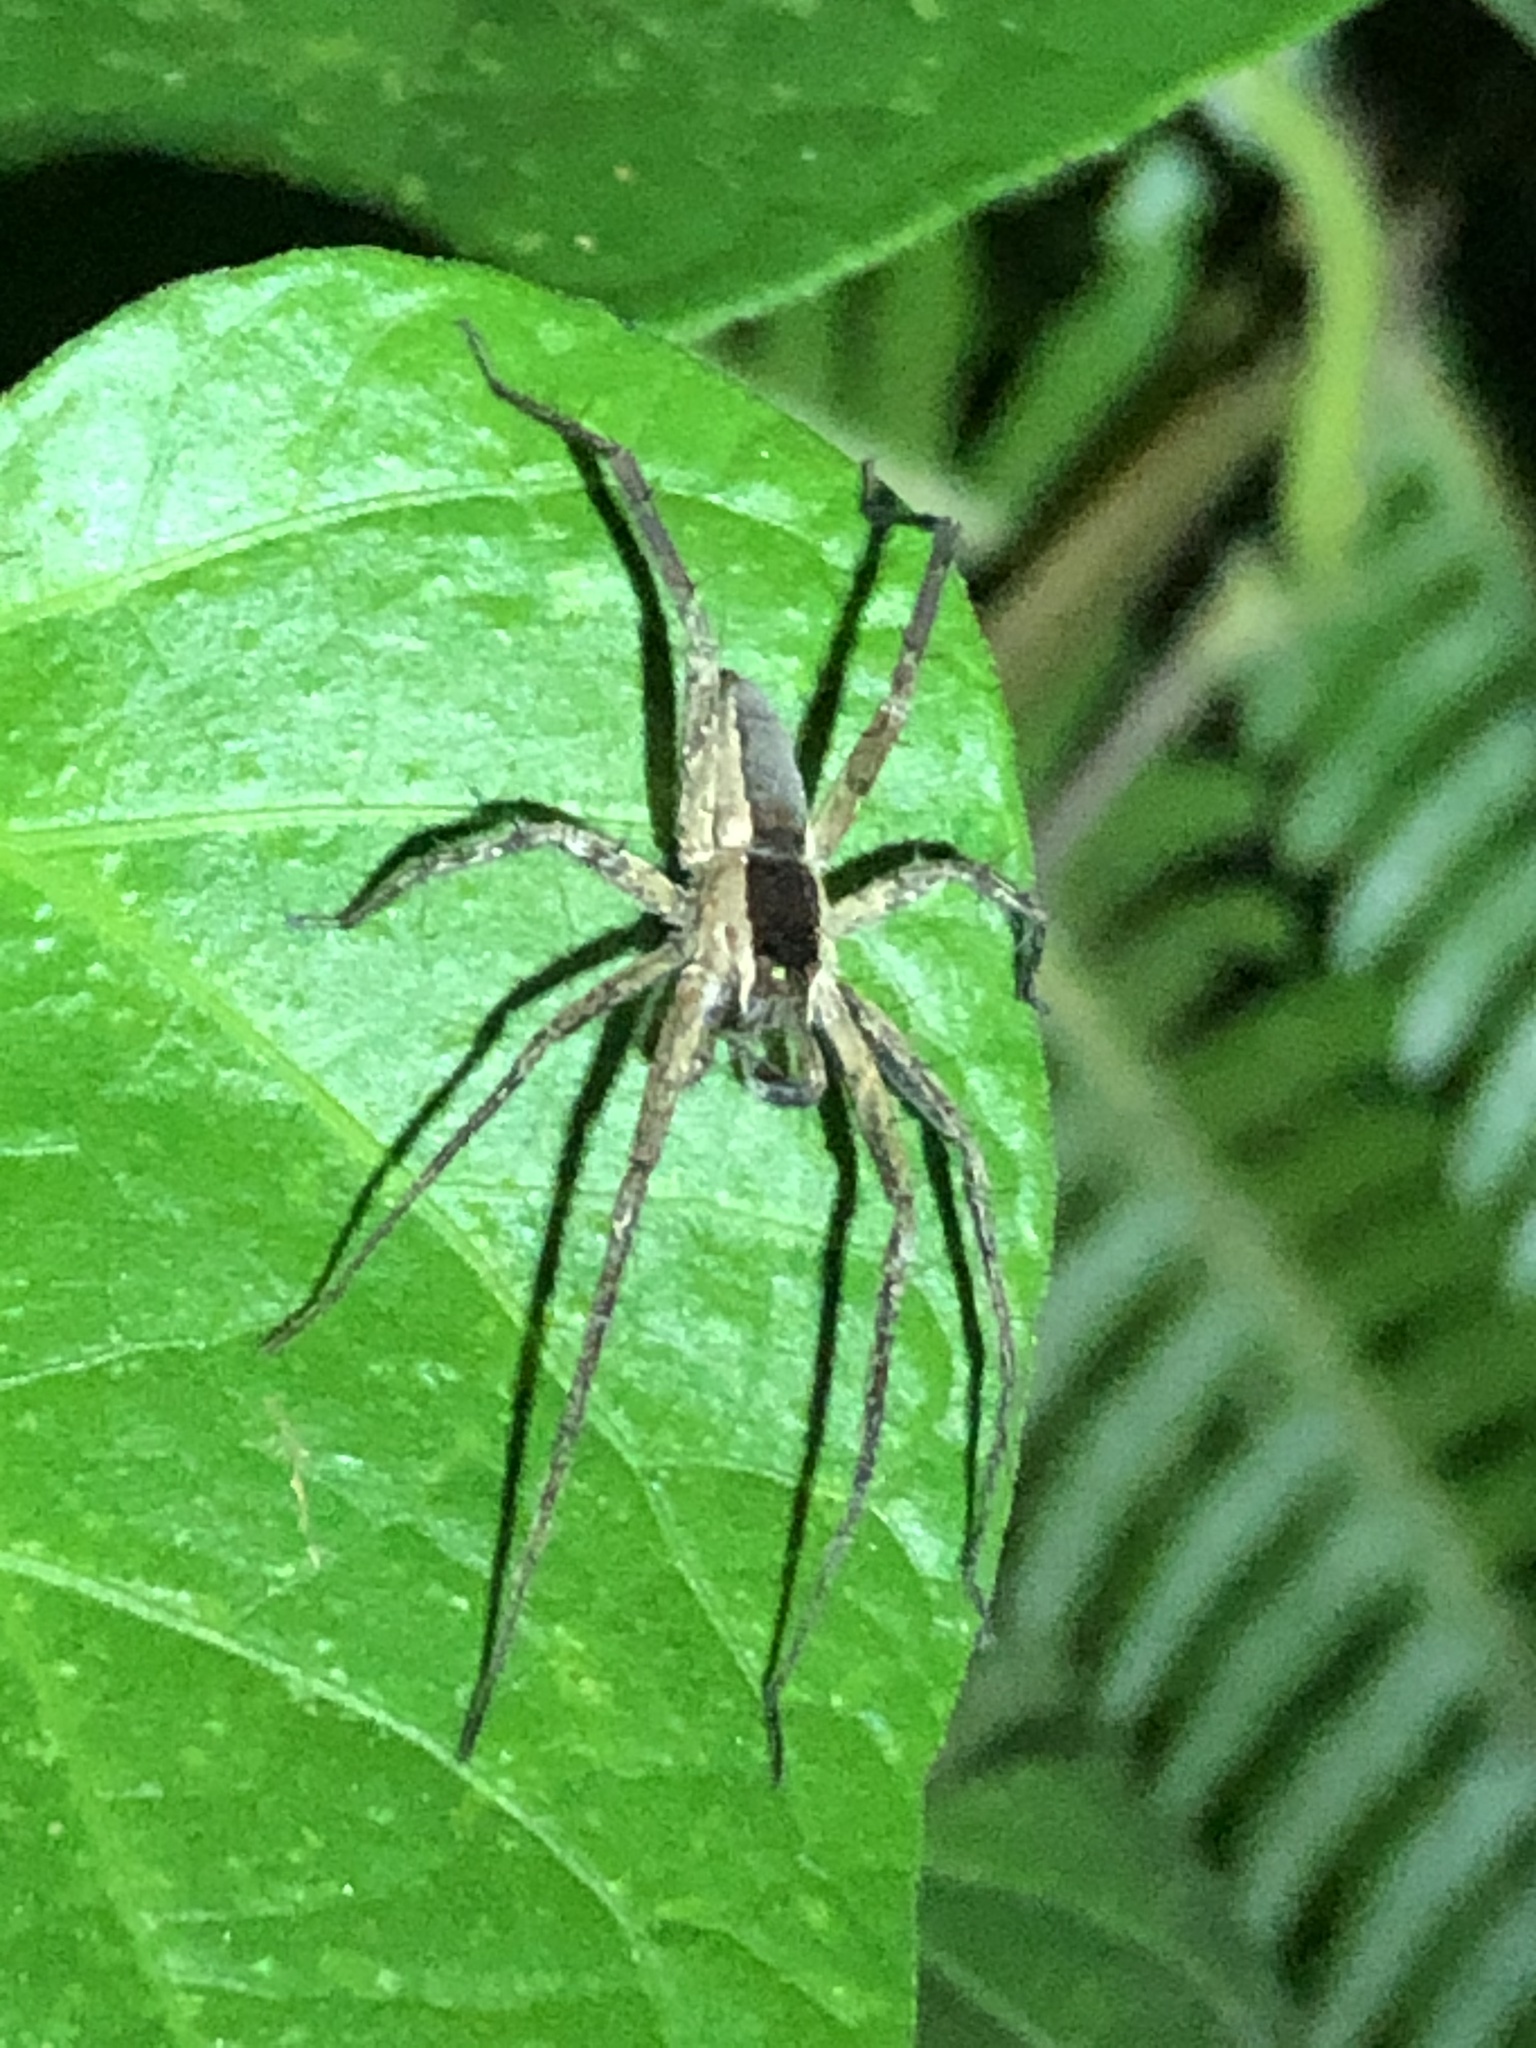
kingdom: Animalia
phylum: Arthropoda
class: Arachnida
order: Araneae
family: Trechaleidae
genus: Dossenus
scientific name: Dossenus marginatus
